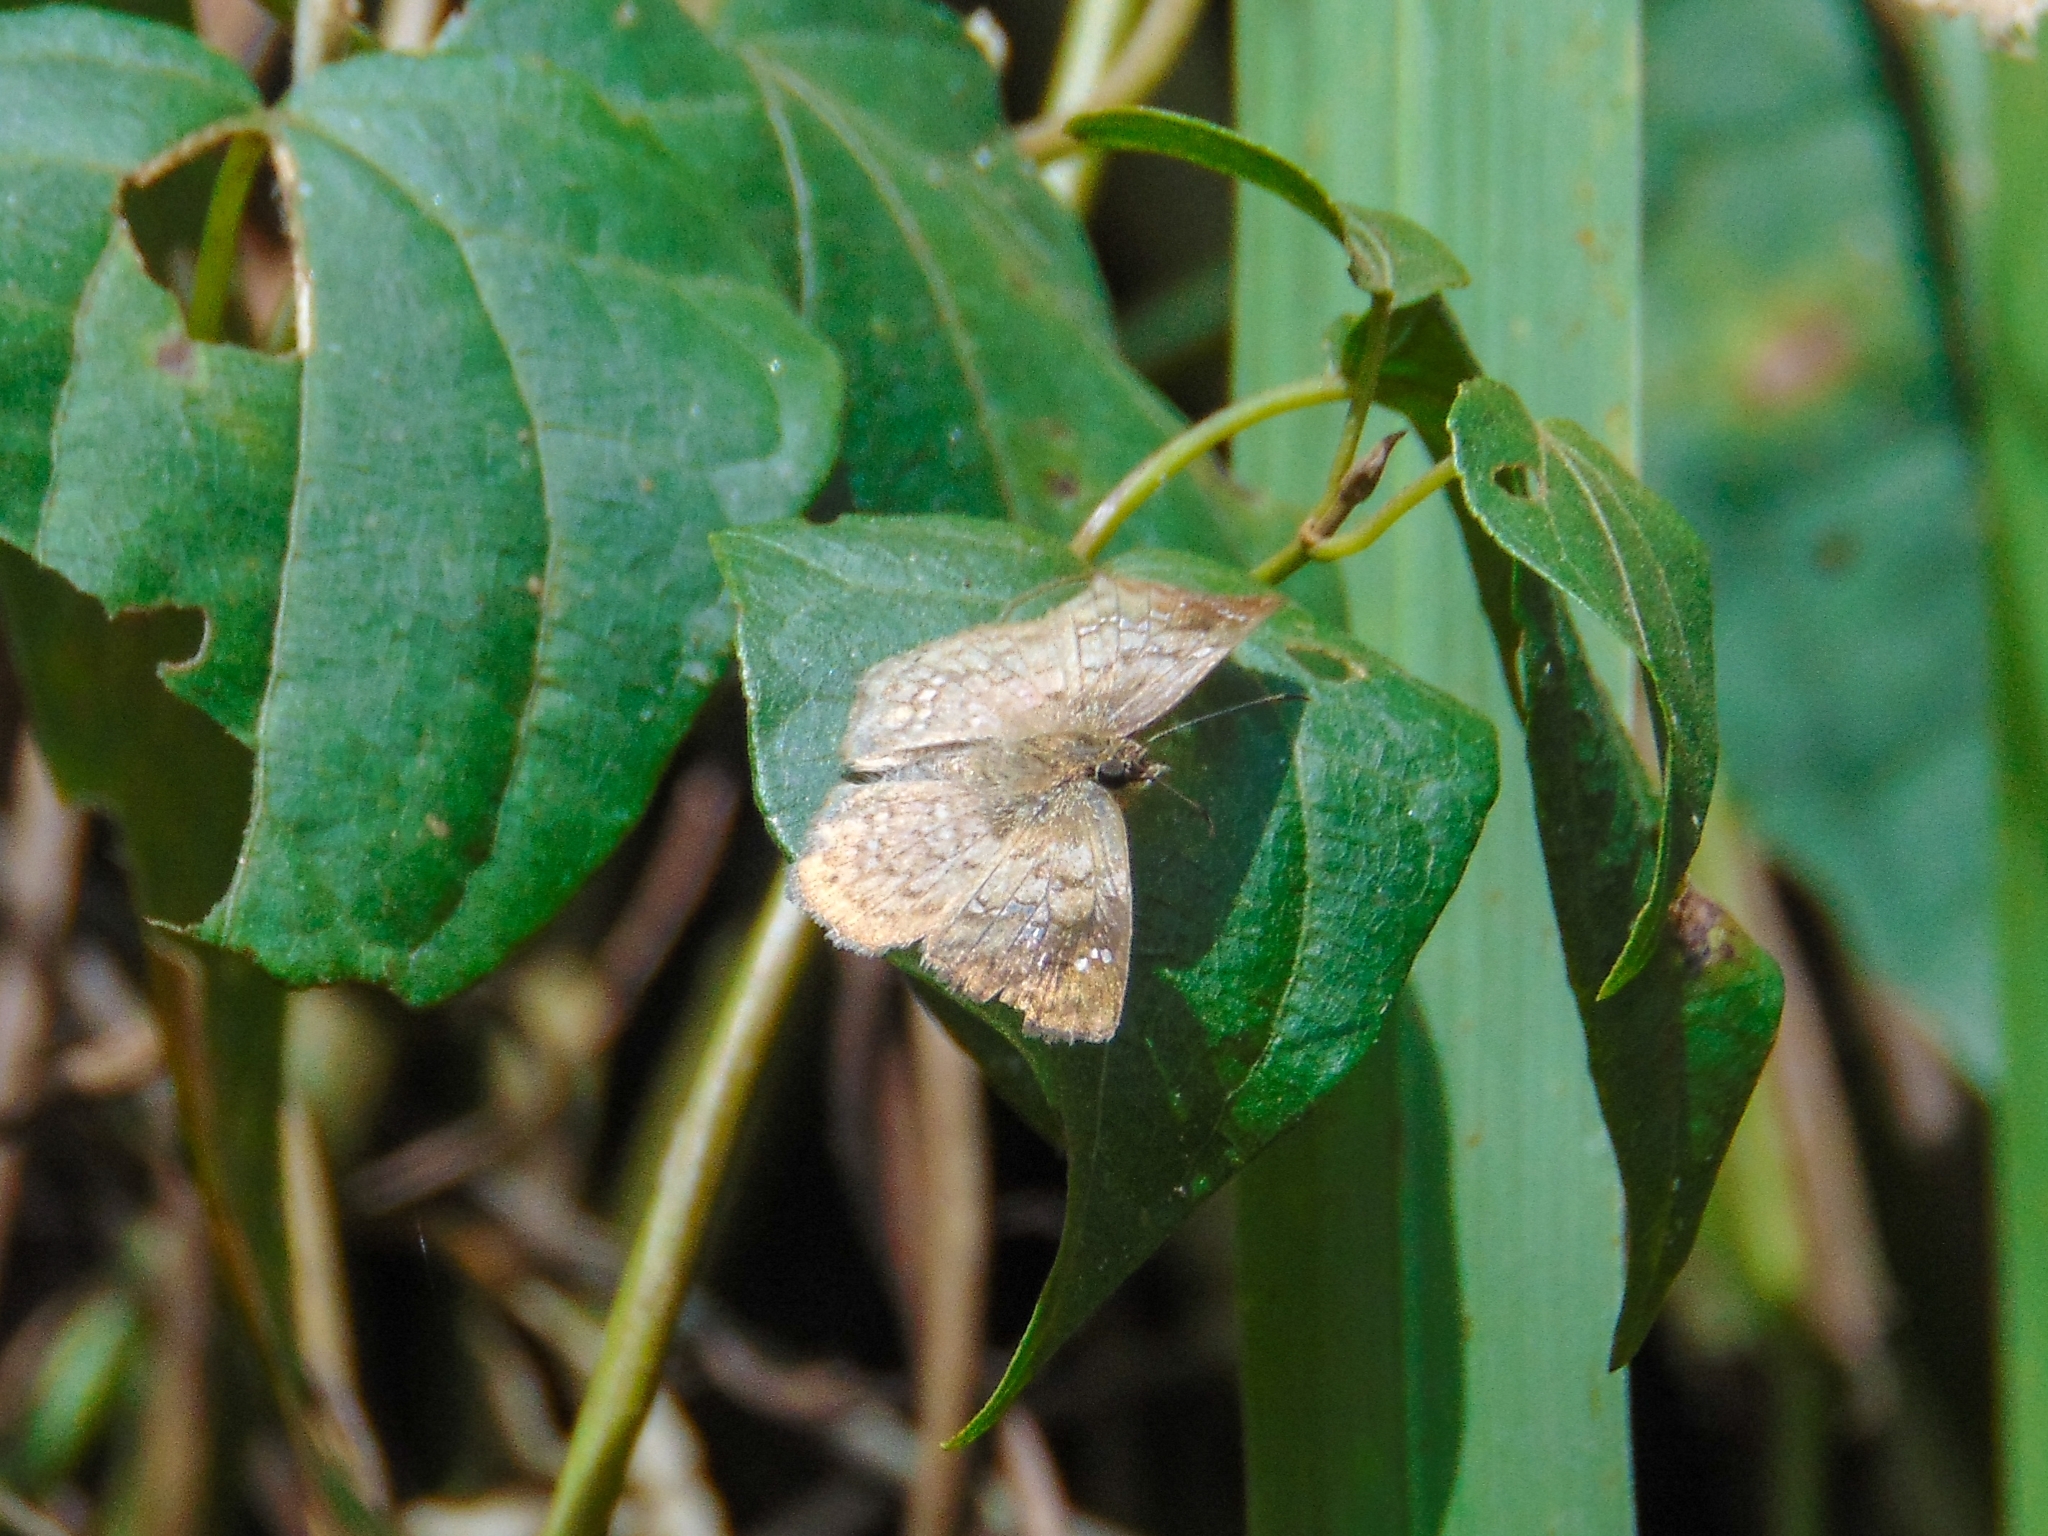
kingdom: Animalia
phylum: Arthropoda
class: Insecta
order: Lepidoptera
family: Hesperiidae
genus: Canesia
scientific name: Canesia
